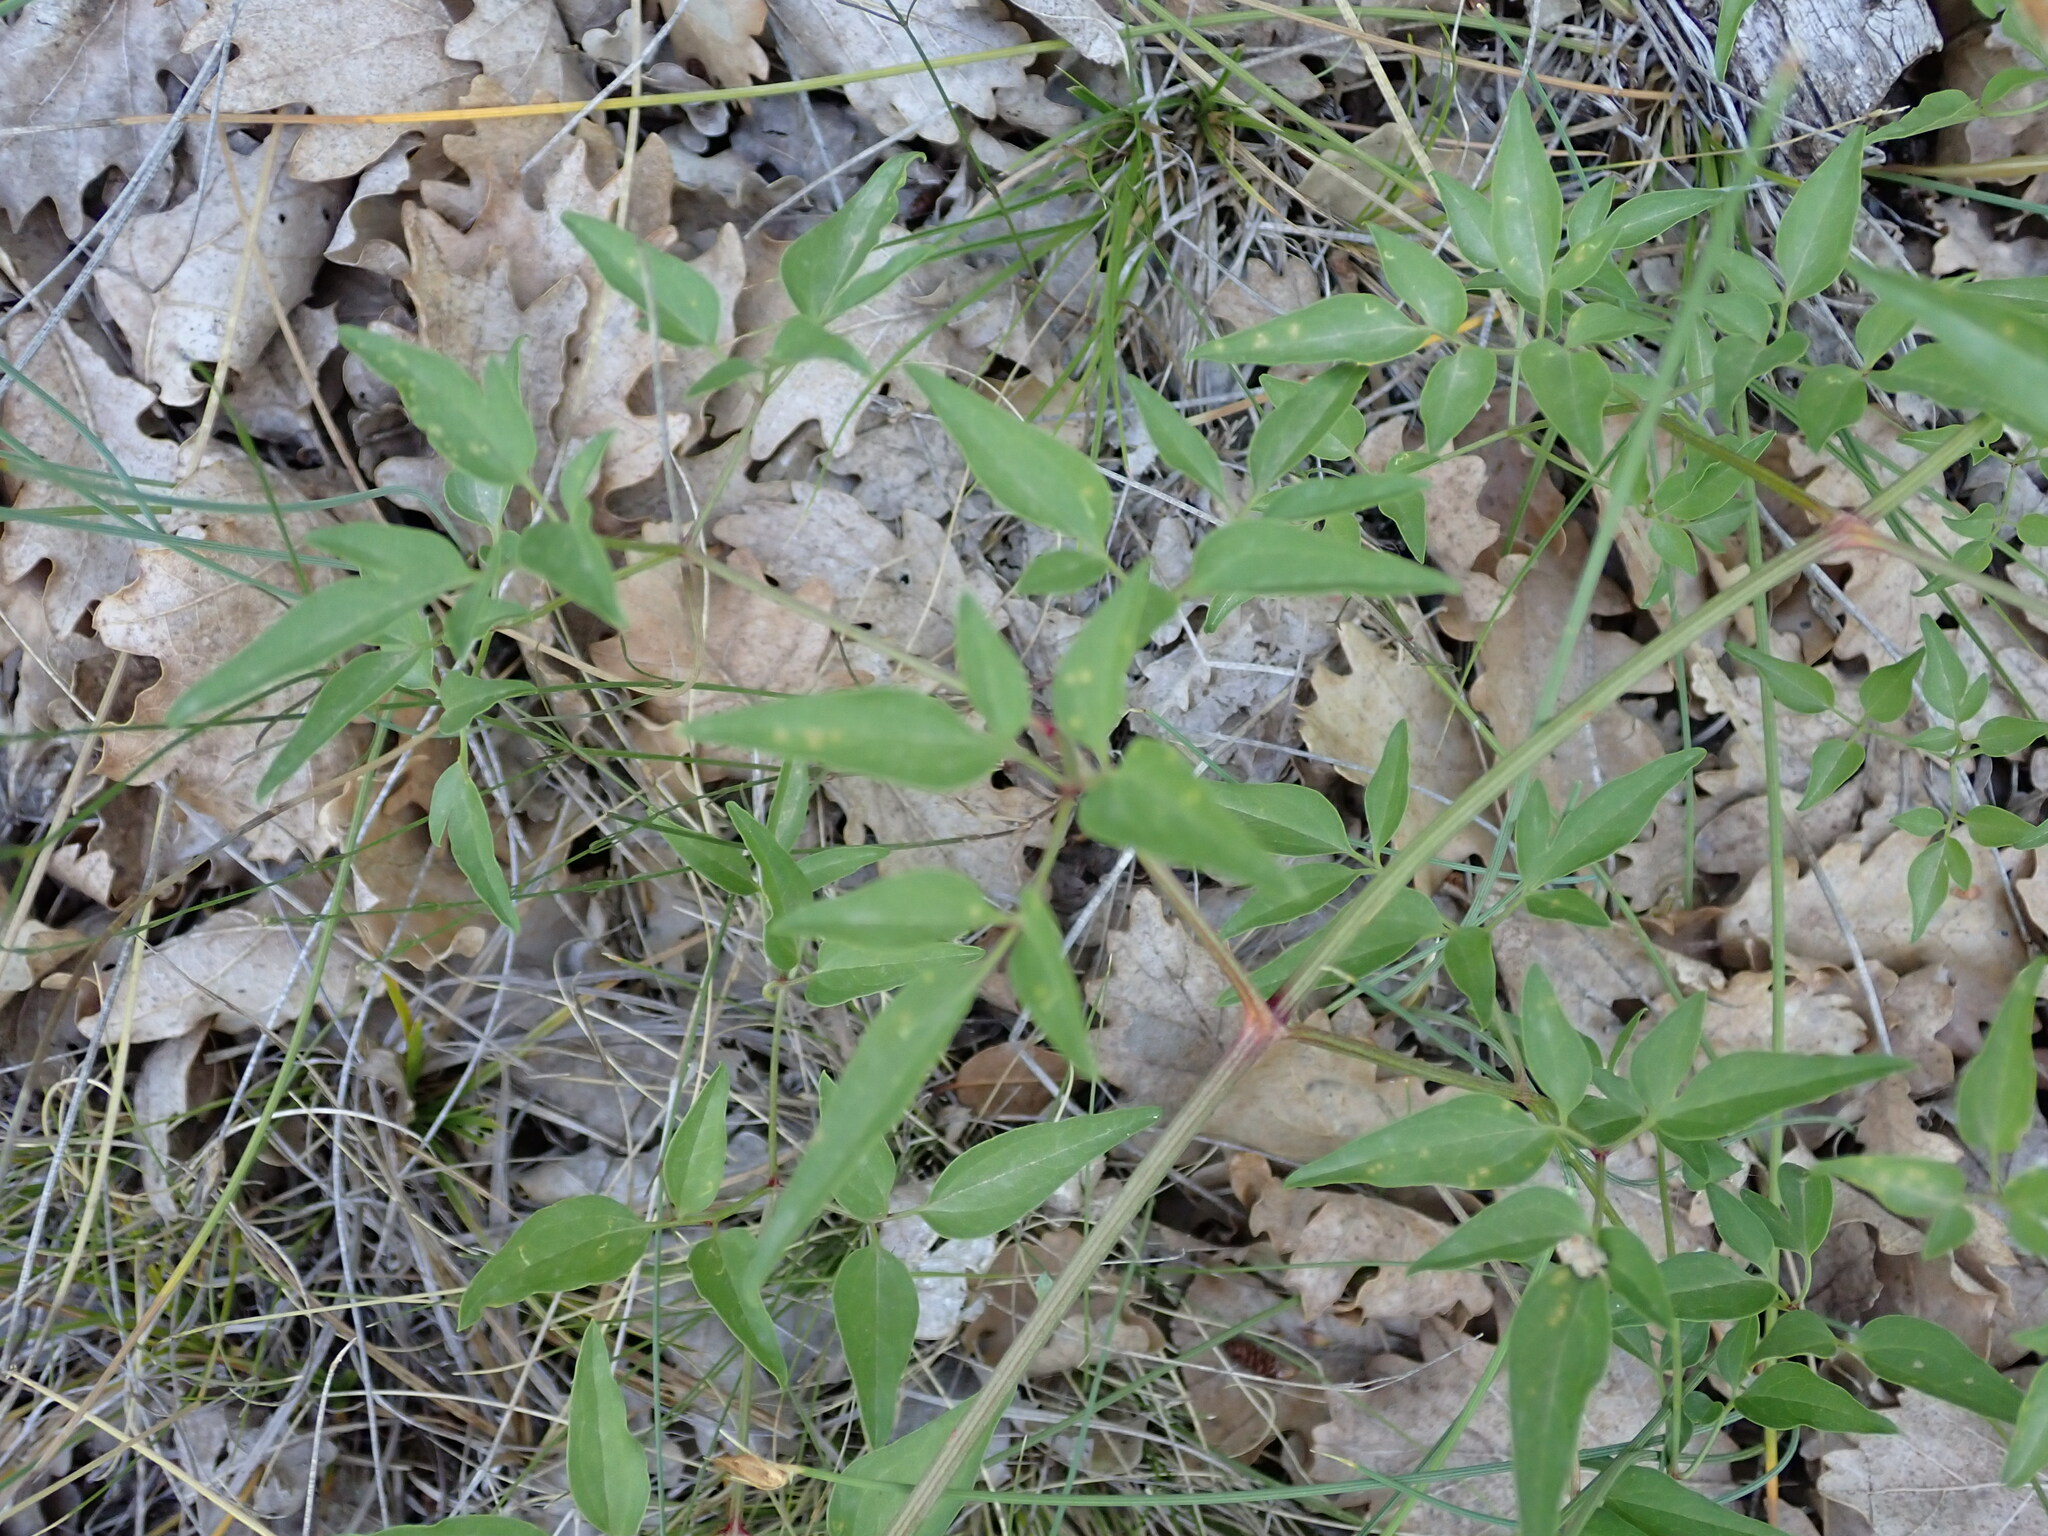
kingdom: Plantae
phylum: Tracheophyta
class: Magnoliopsida
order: Ranunculales
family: Ranunculaceae
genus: Clematis
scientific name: Clematis flammula
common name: Virgin's-bower
